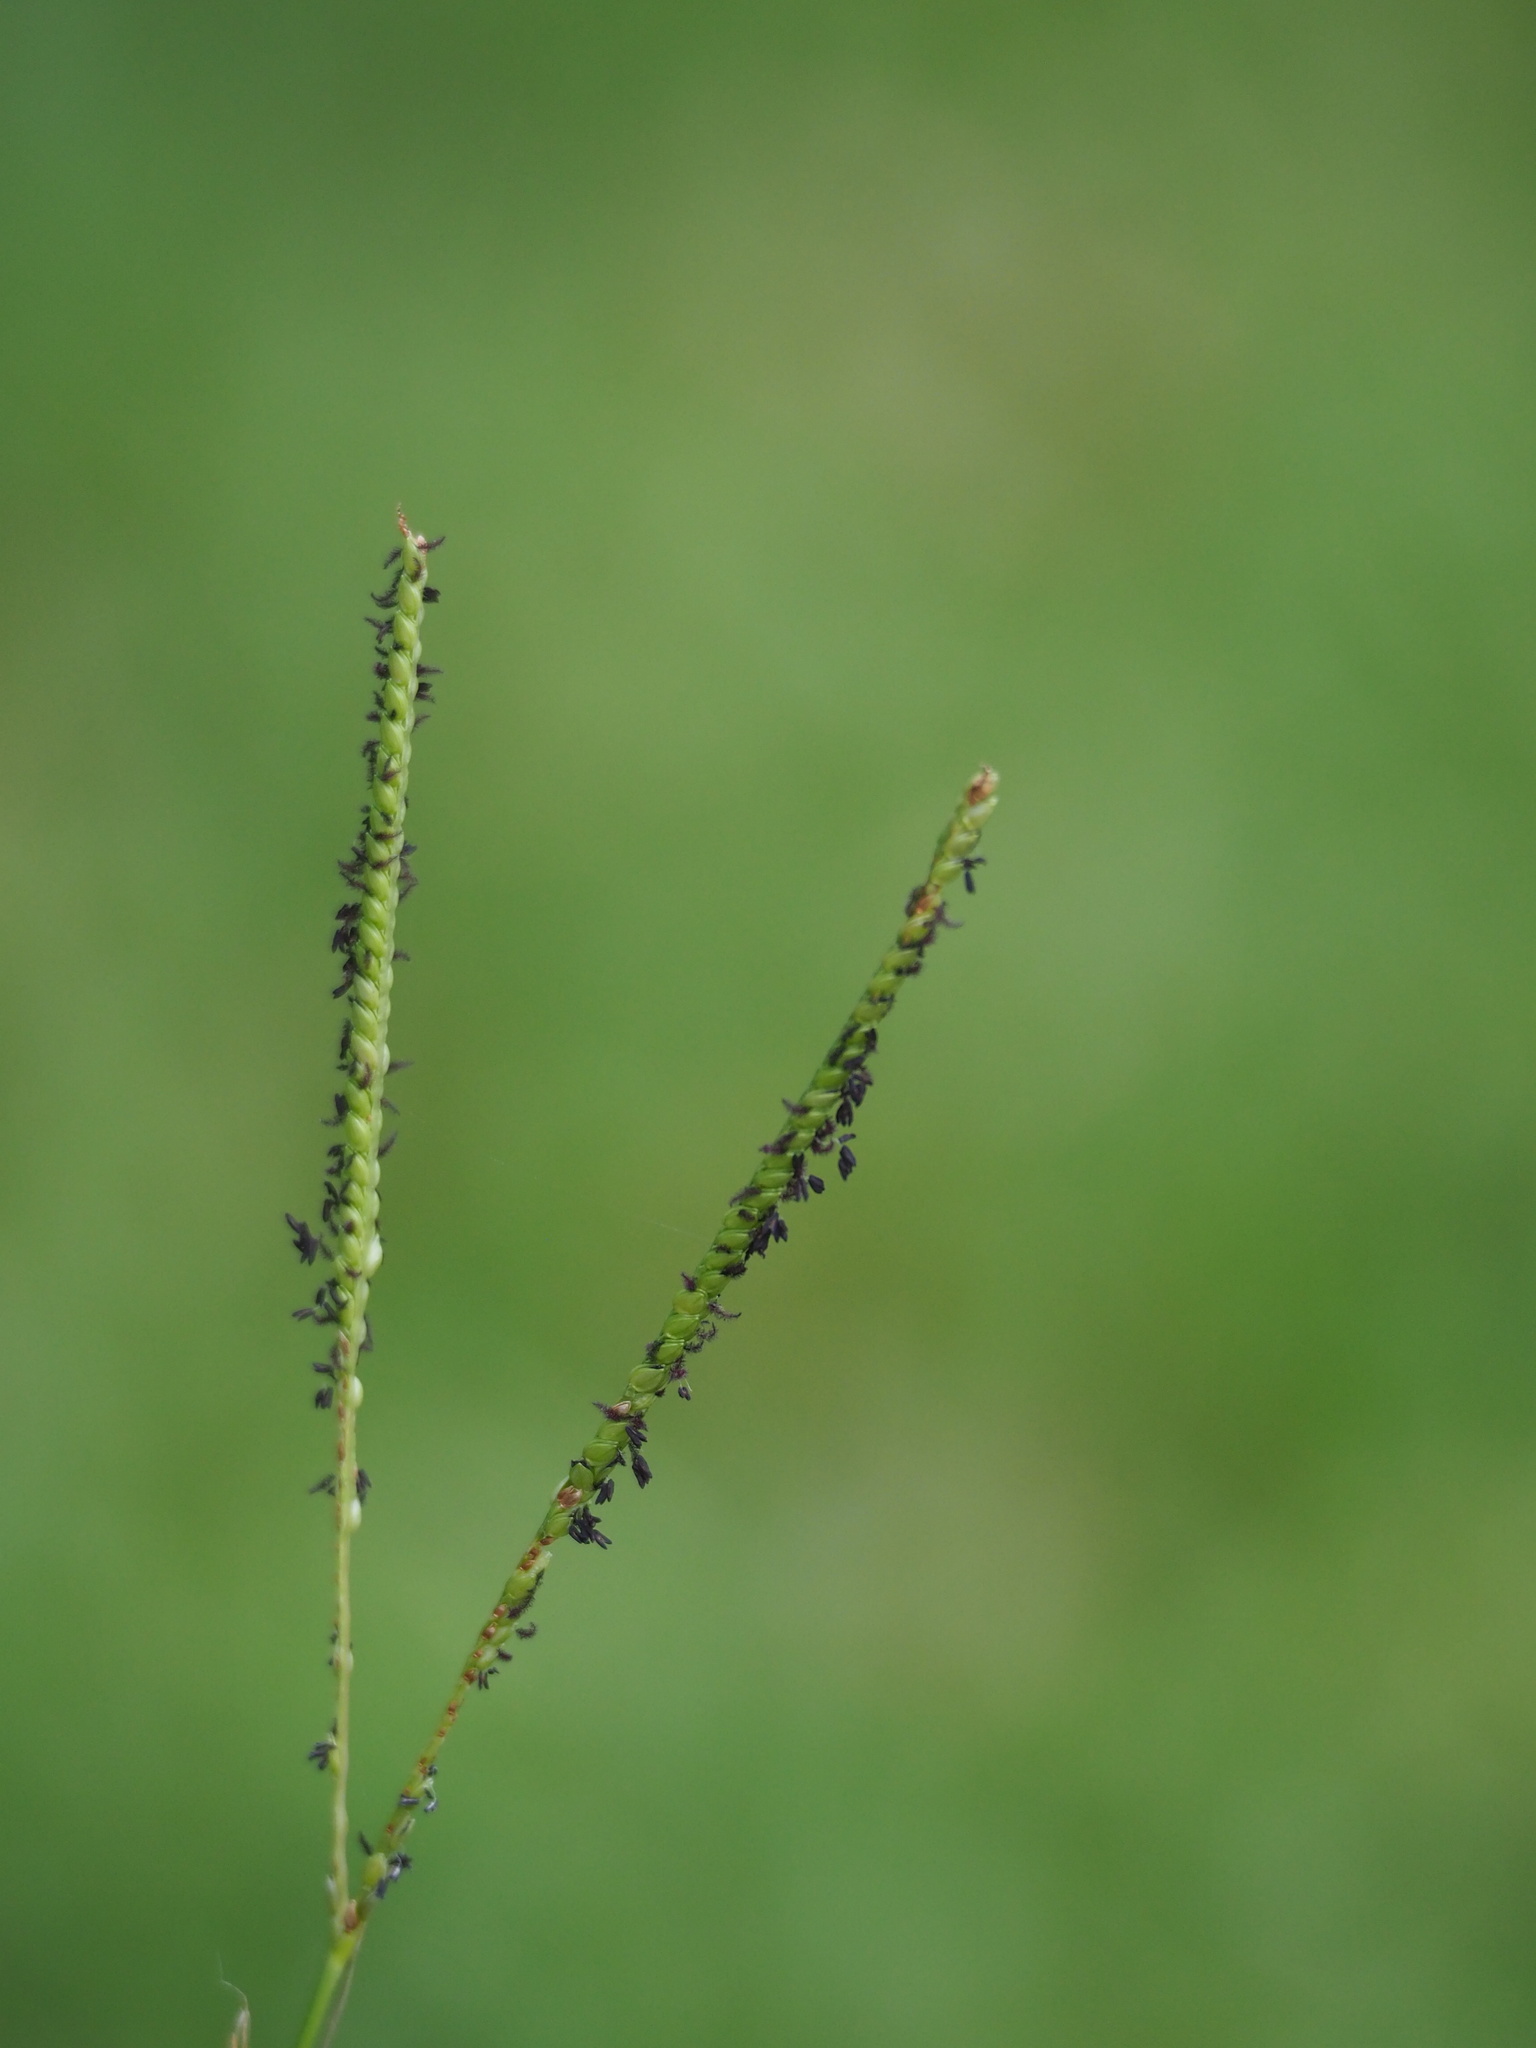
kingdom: Plantae
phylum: Tracheophyta
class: Liliopsida
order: Poales
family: Poaceae
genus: Paspalum
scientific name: Paspalum notatum
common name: Bahiagrass
